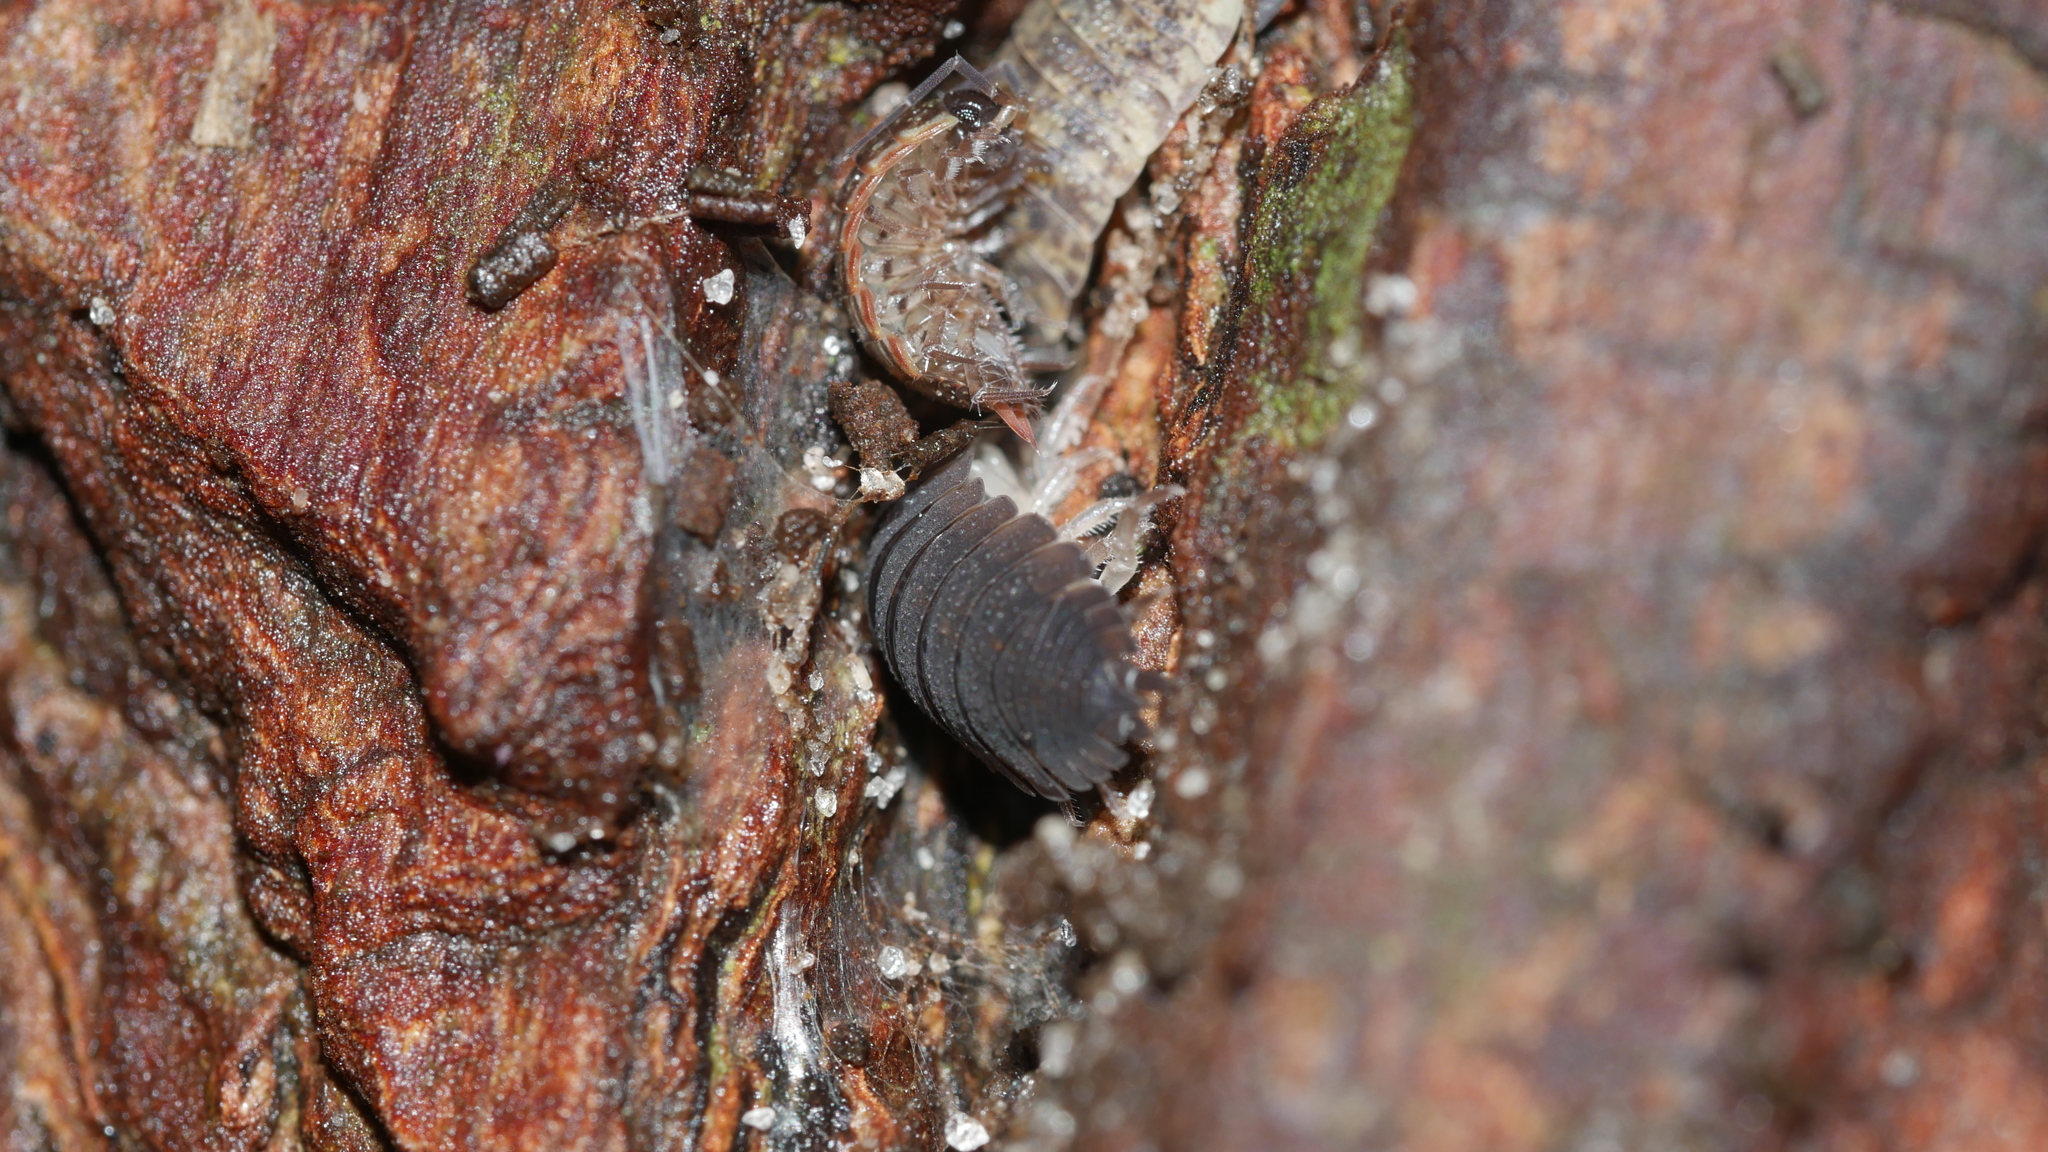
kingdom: Animalia
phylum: Arthropoda
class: Malacostraca
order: Isopoda
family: Porcellionidae
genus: Porcellio
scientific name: Porcellio scaber
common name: Common rough woodlouse
